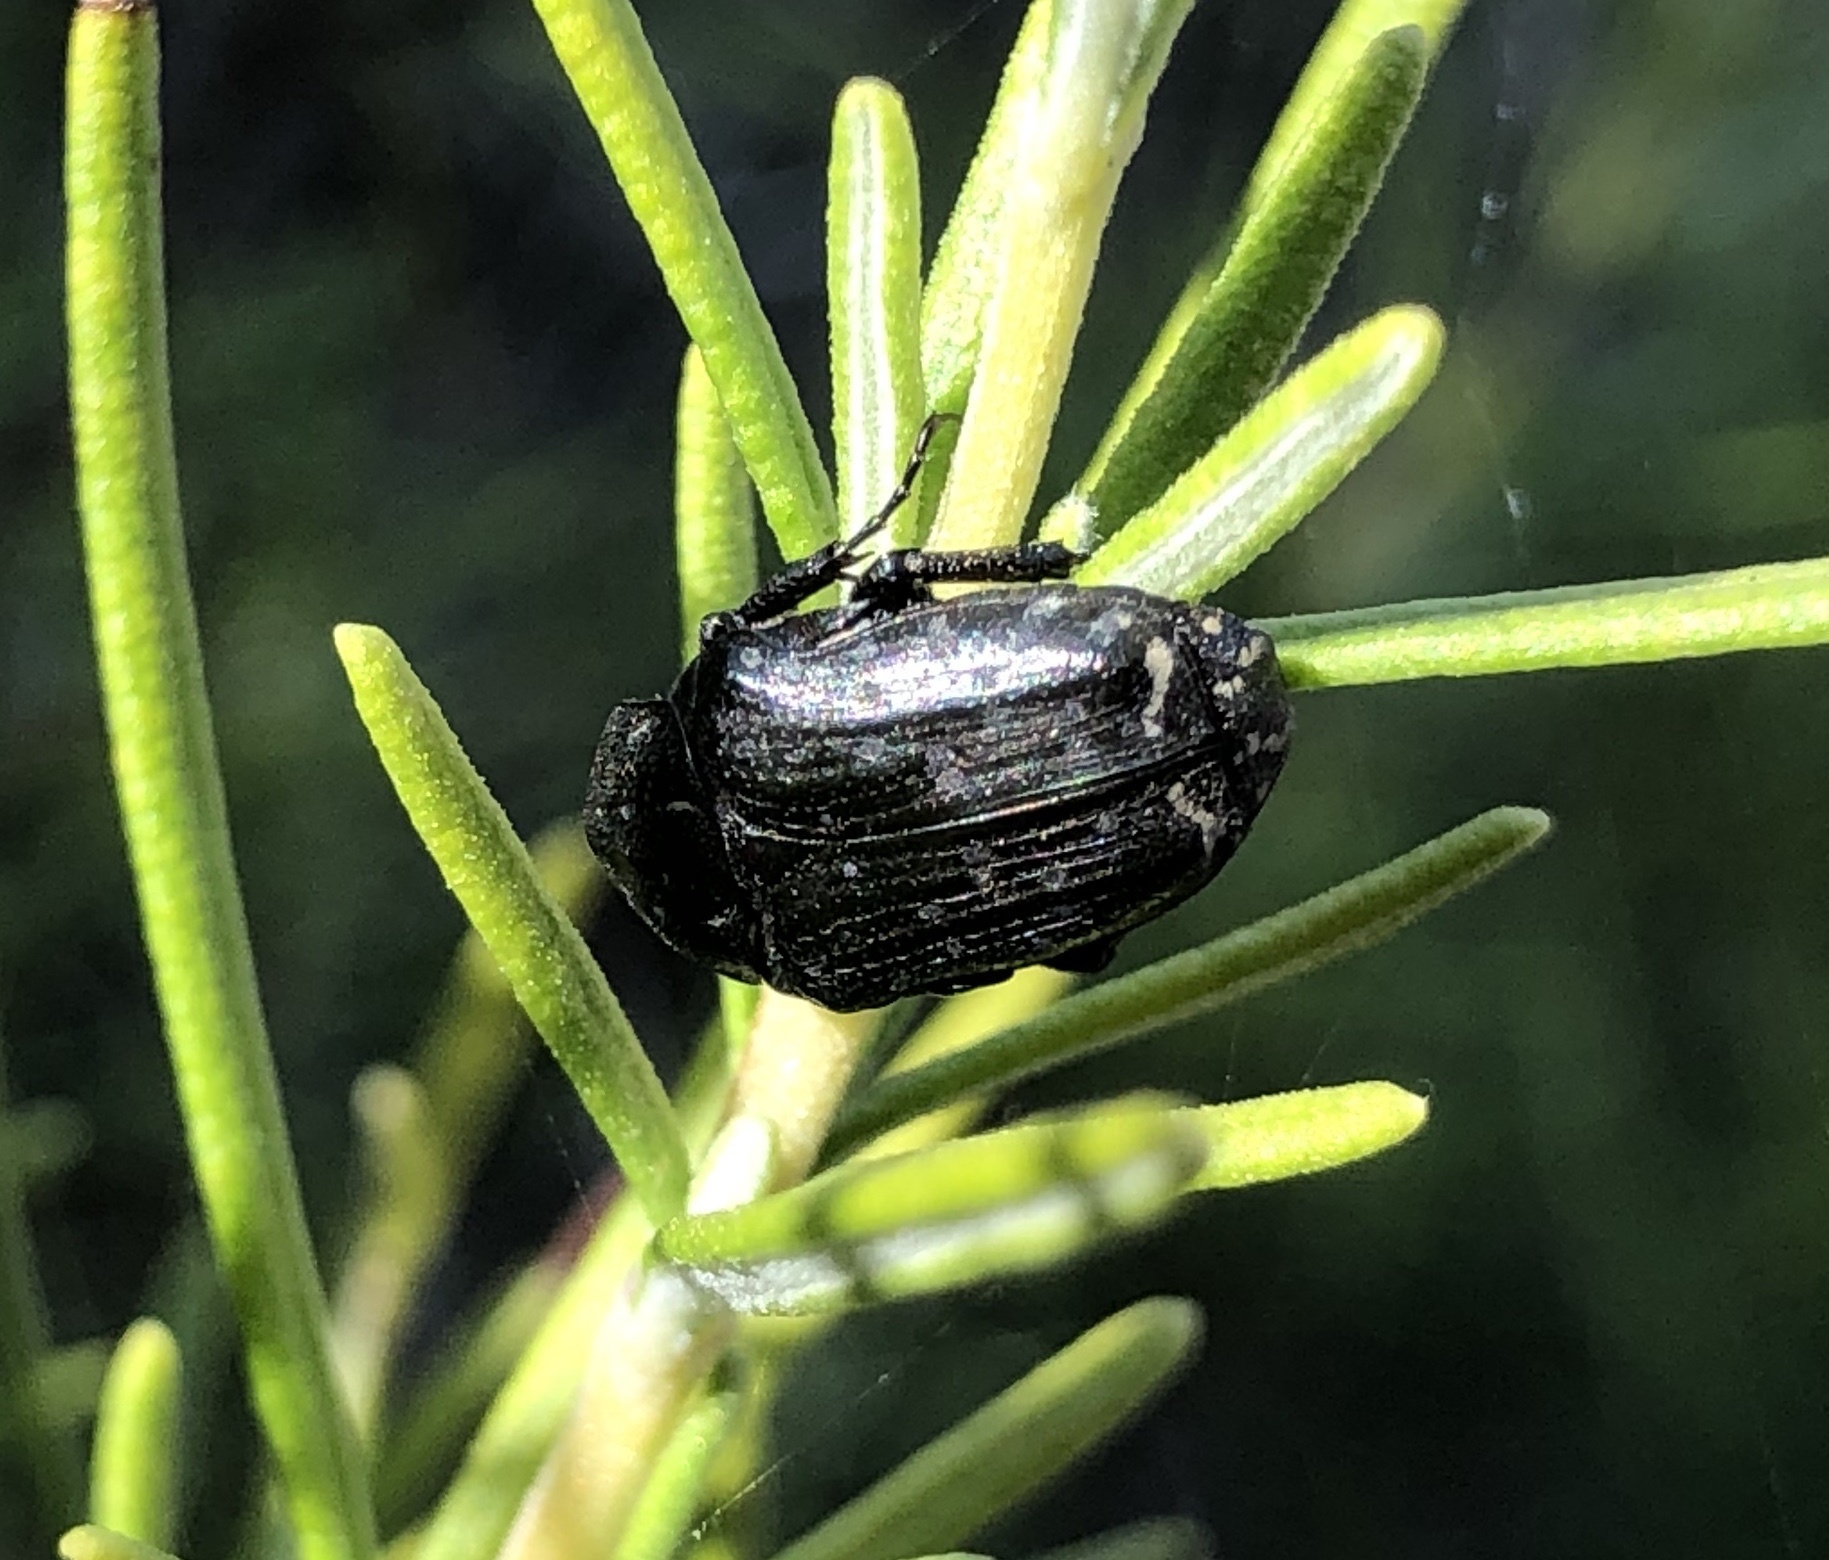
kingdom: Animalia
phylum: Arthropoda
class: Insecta
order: Coleoptera
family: Scarabaeidae
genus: Oxythyrea
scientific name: Oxythyrea funesta
